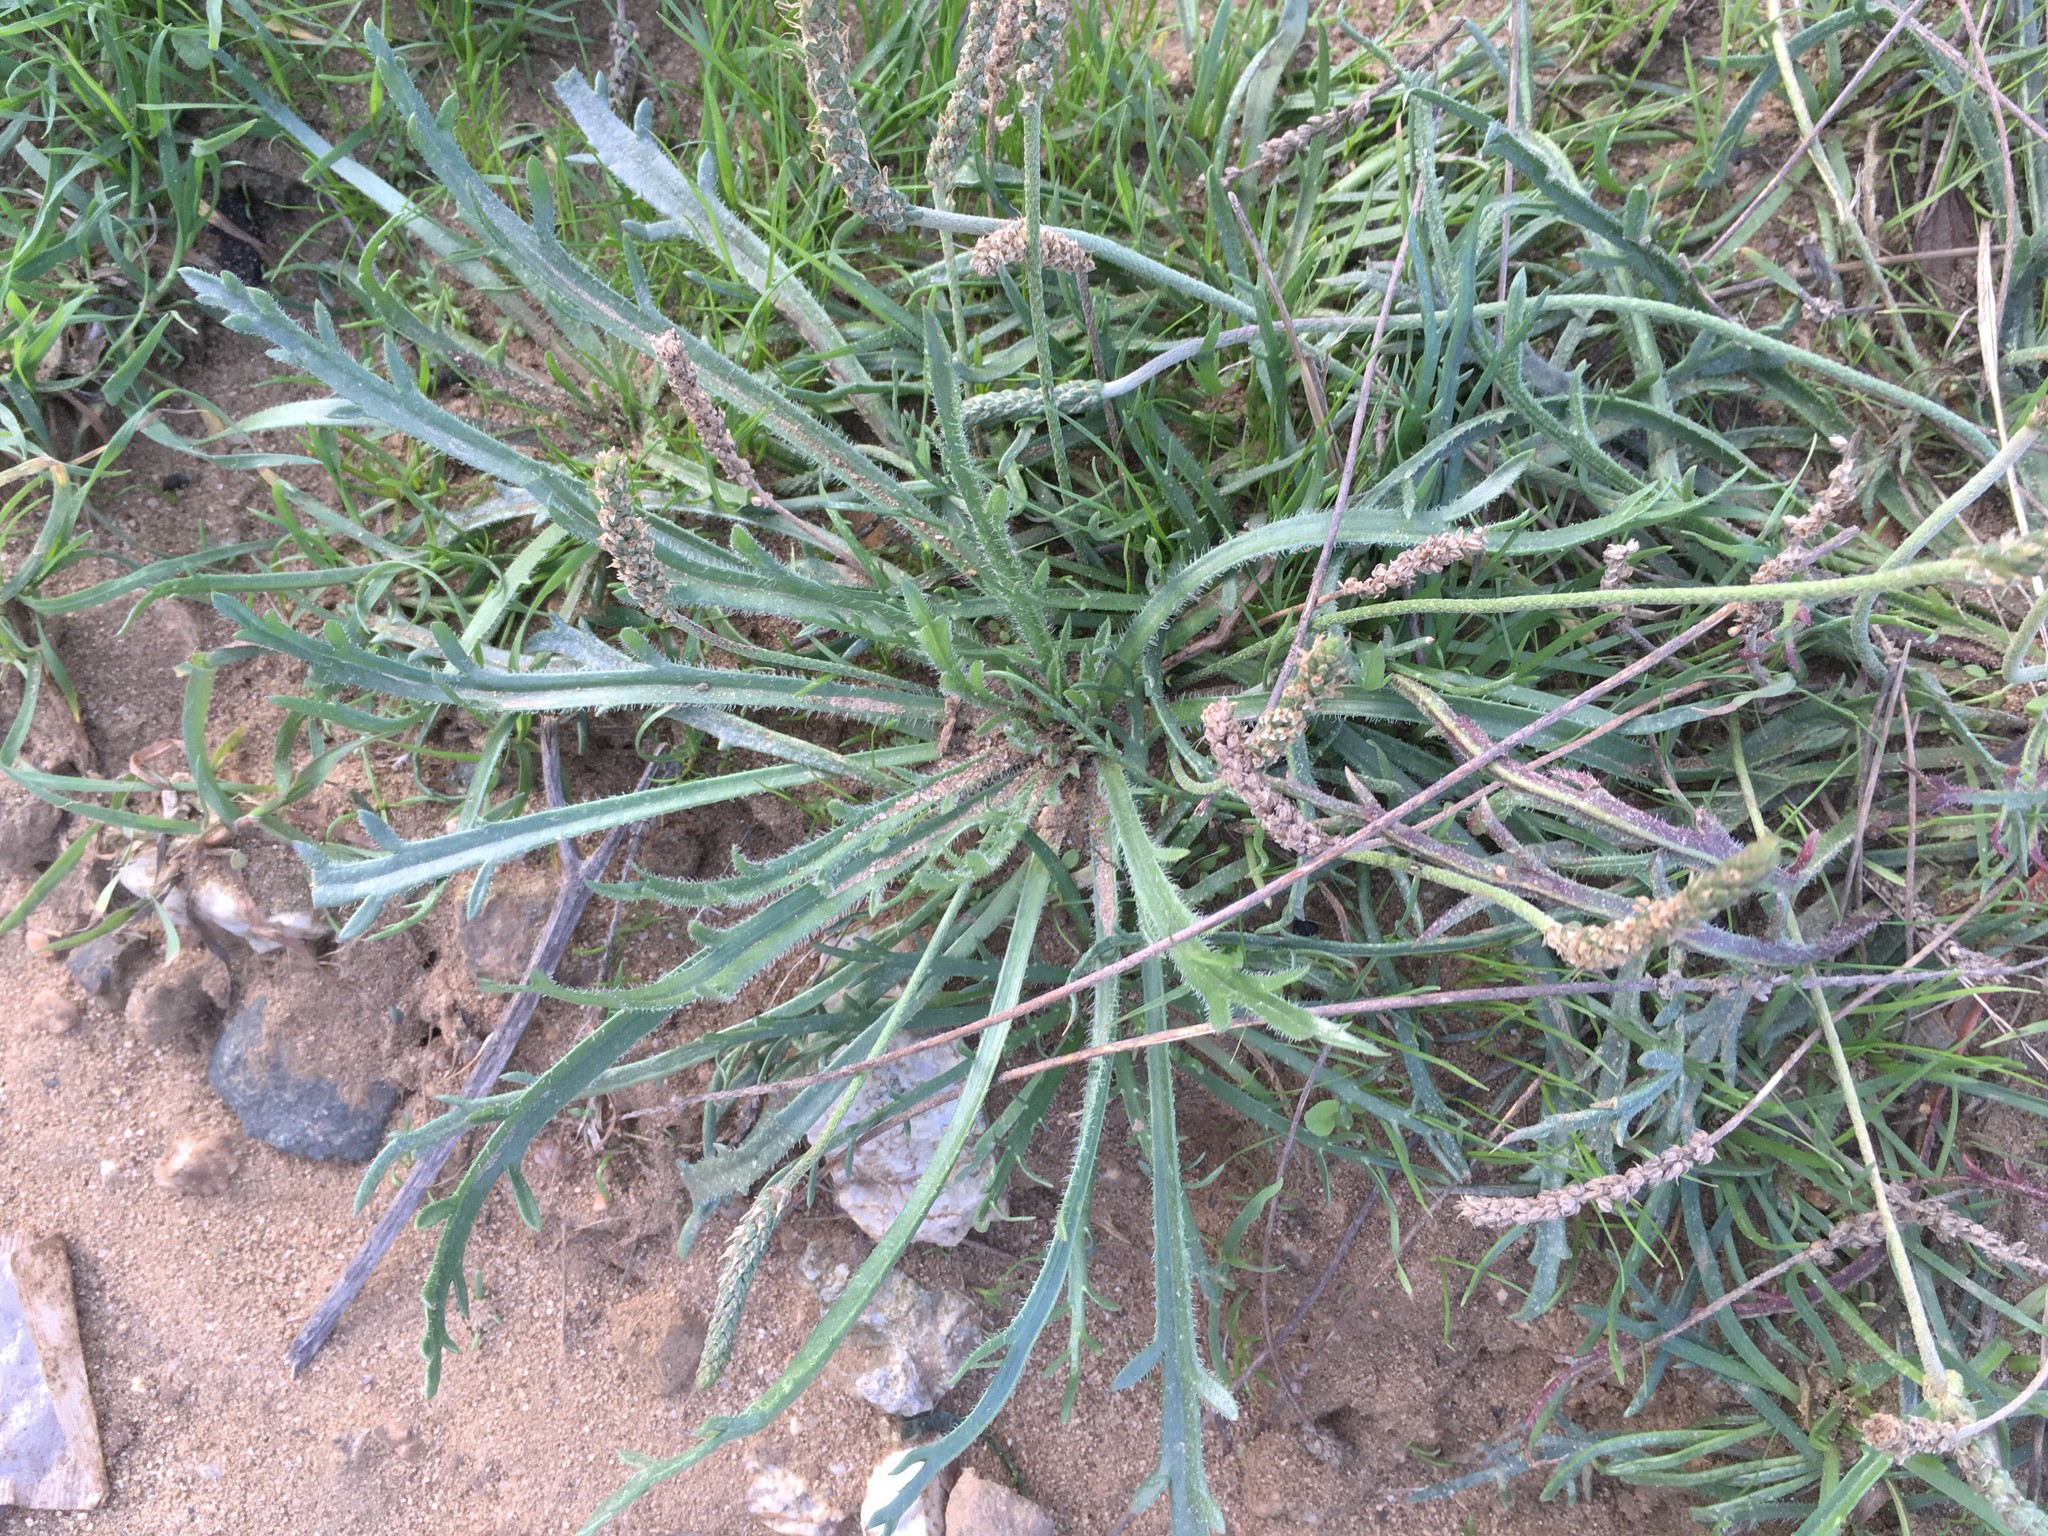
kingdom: Plantae
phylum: Tracheophyta
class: Magnoliopsida
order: Lamiales
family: Plantaginaceae
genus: Plantago
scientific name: Plantago coronopus
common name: Buck's-horn plantain
